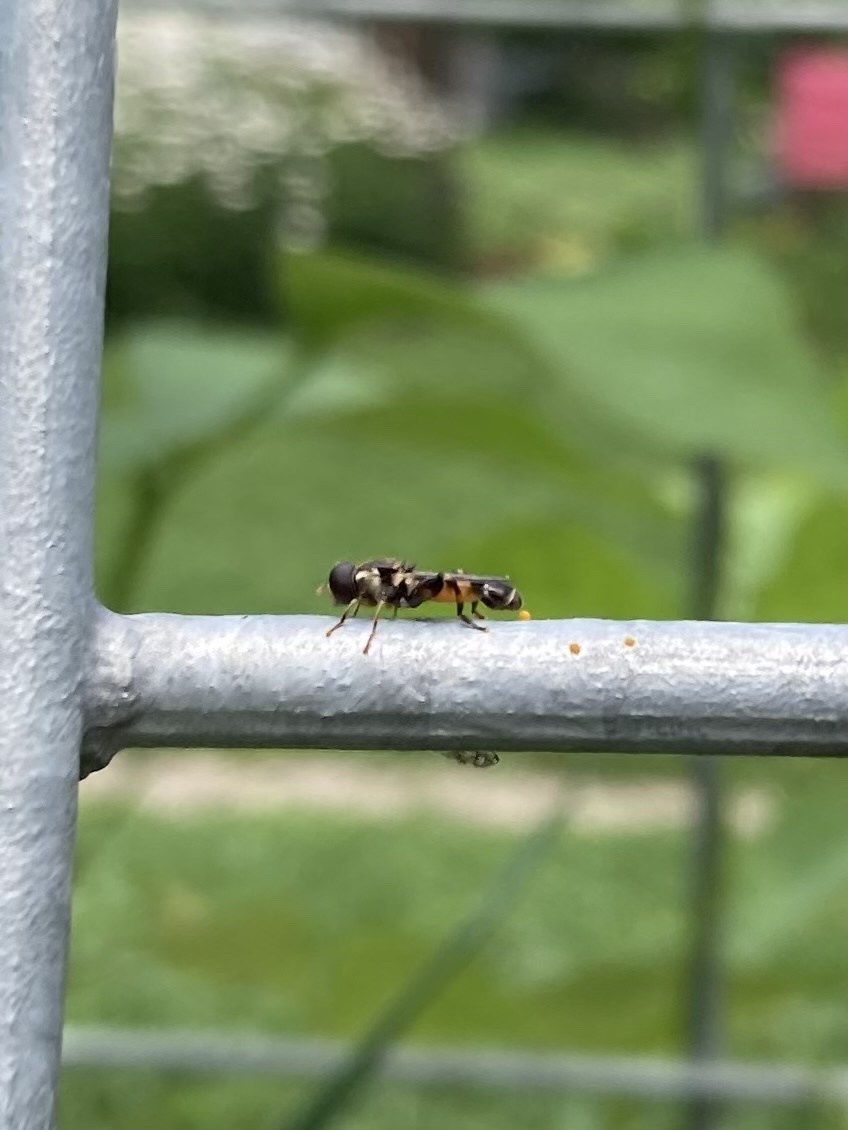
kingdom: Animalia
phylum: Arthropoda
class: Insecta
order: Diptera
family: Syrphidae
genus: Syritta
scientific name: Syritta pipiens
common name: Hover fly
